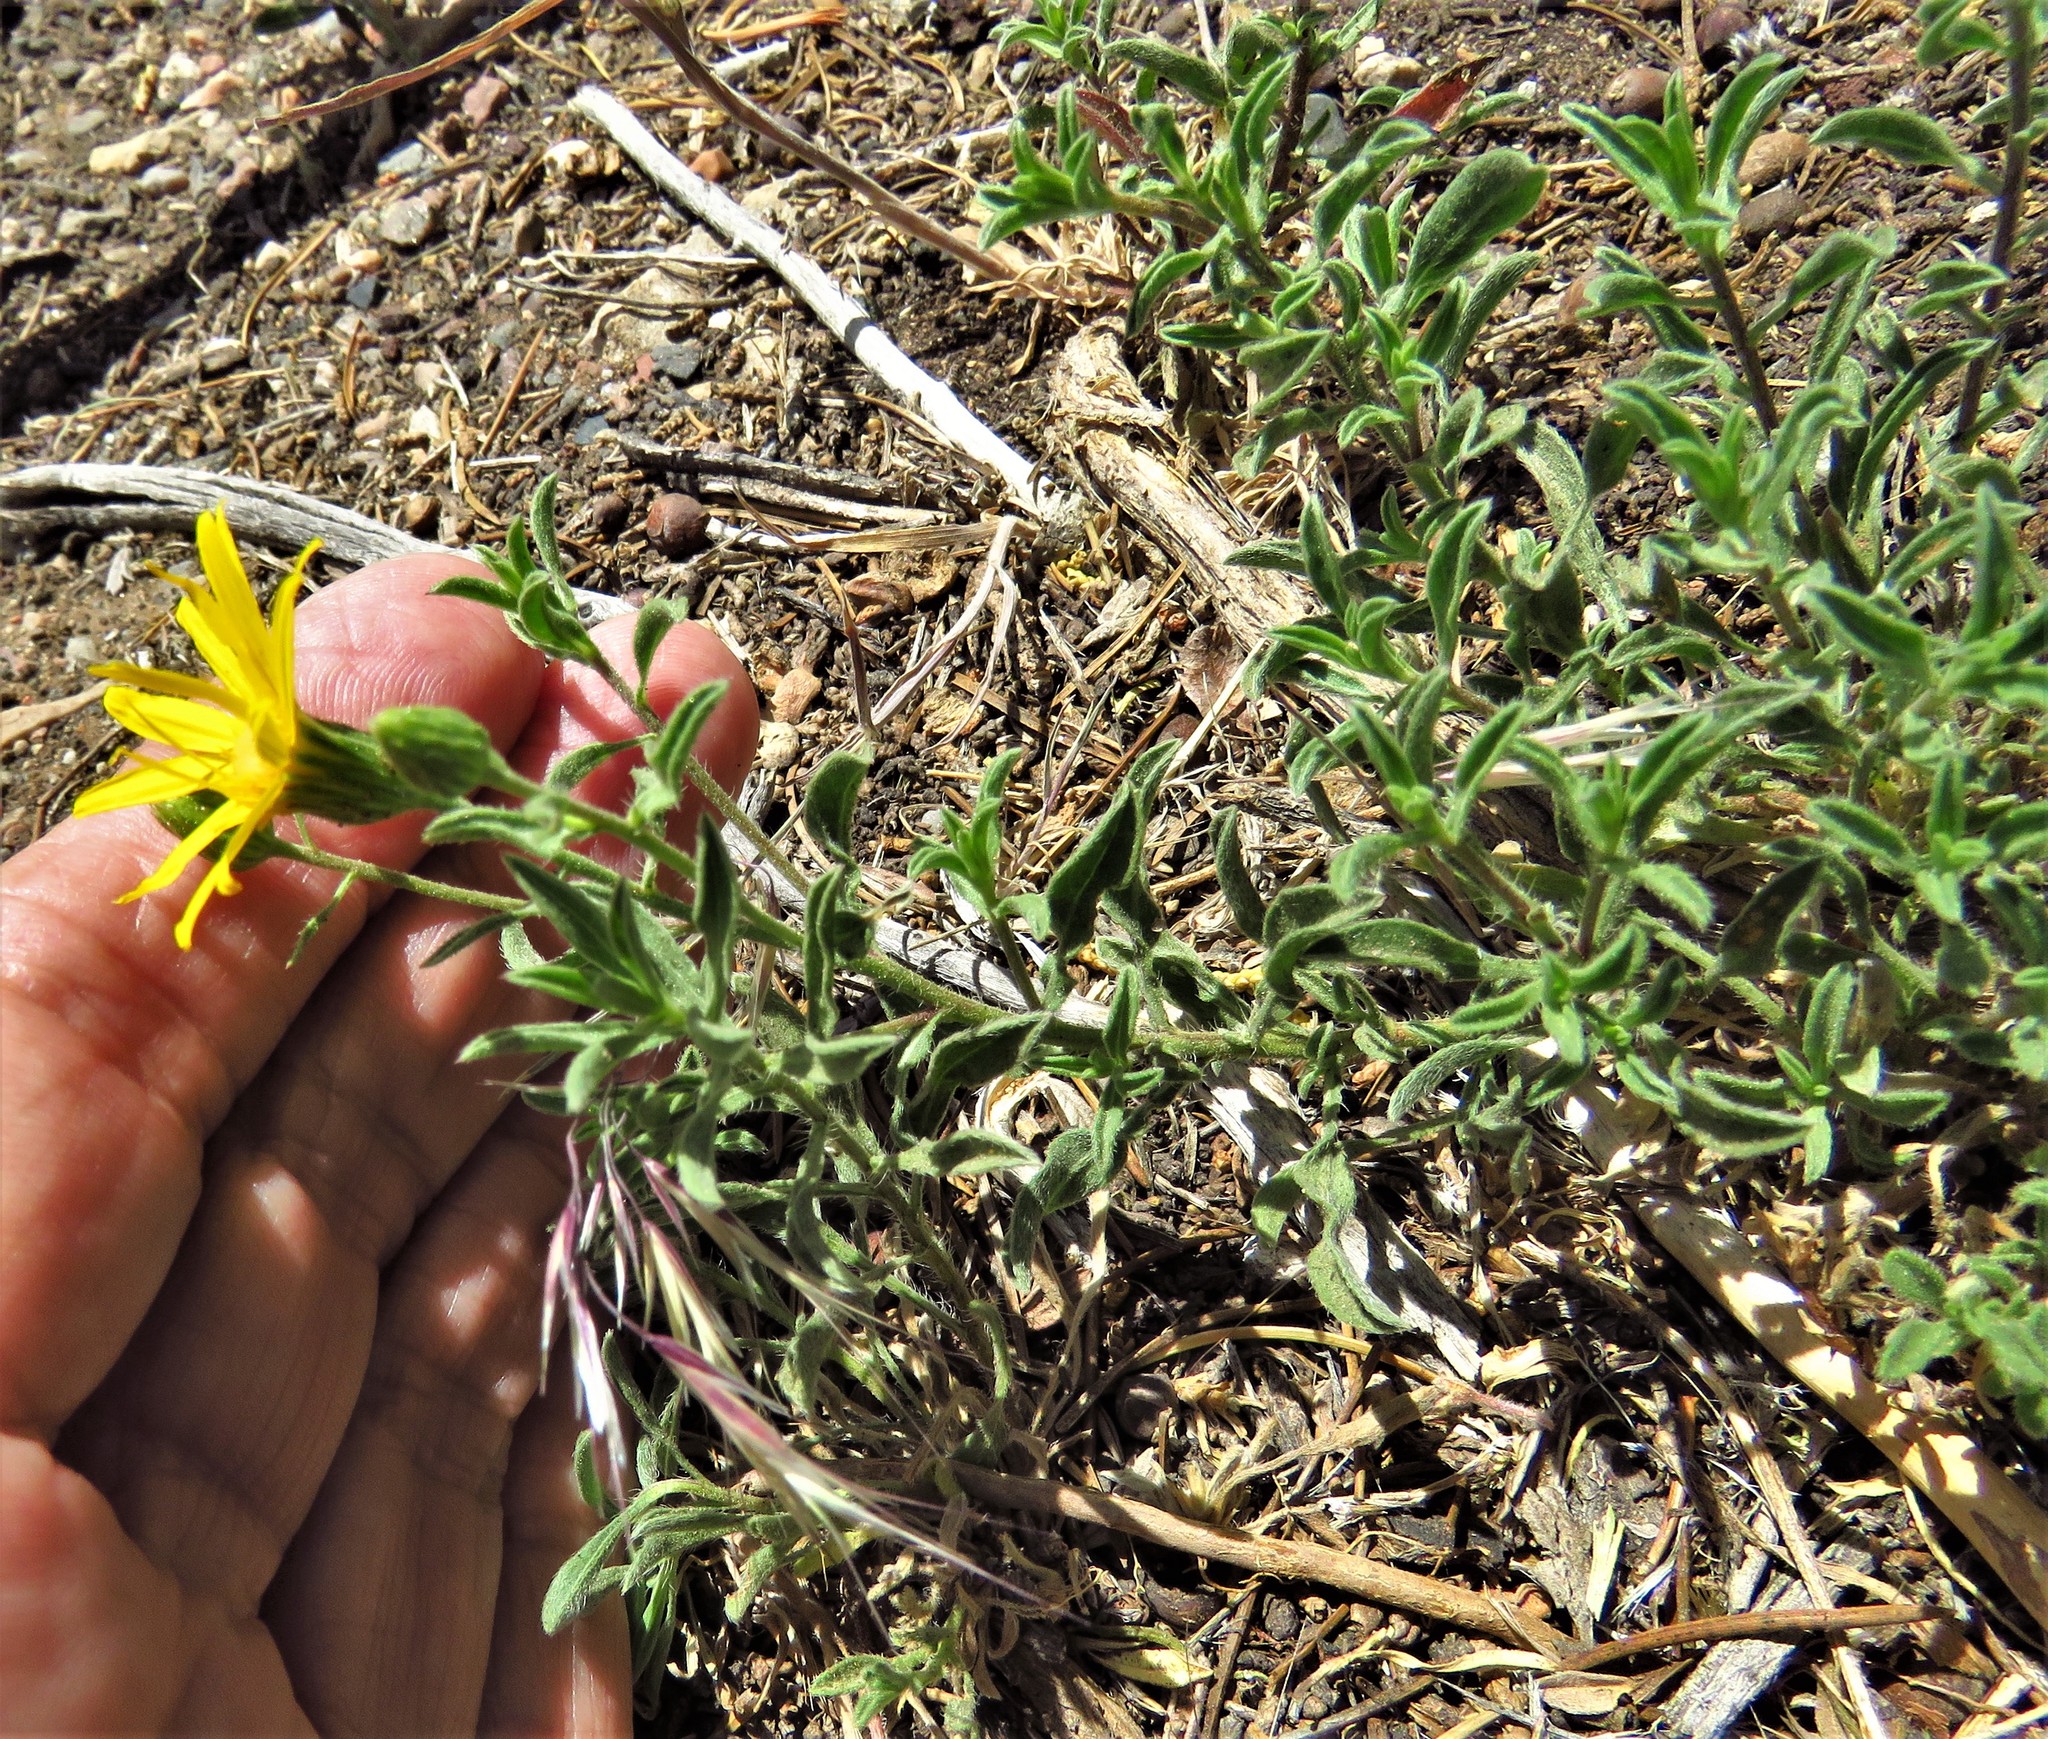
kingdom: Plantae
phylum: Tracheophyta
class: Magnoliopsida
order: Asterales
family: Asteraceae
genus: Heterotheca
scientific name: Heterotheca villosa
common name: Hairy false goldenaster
